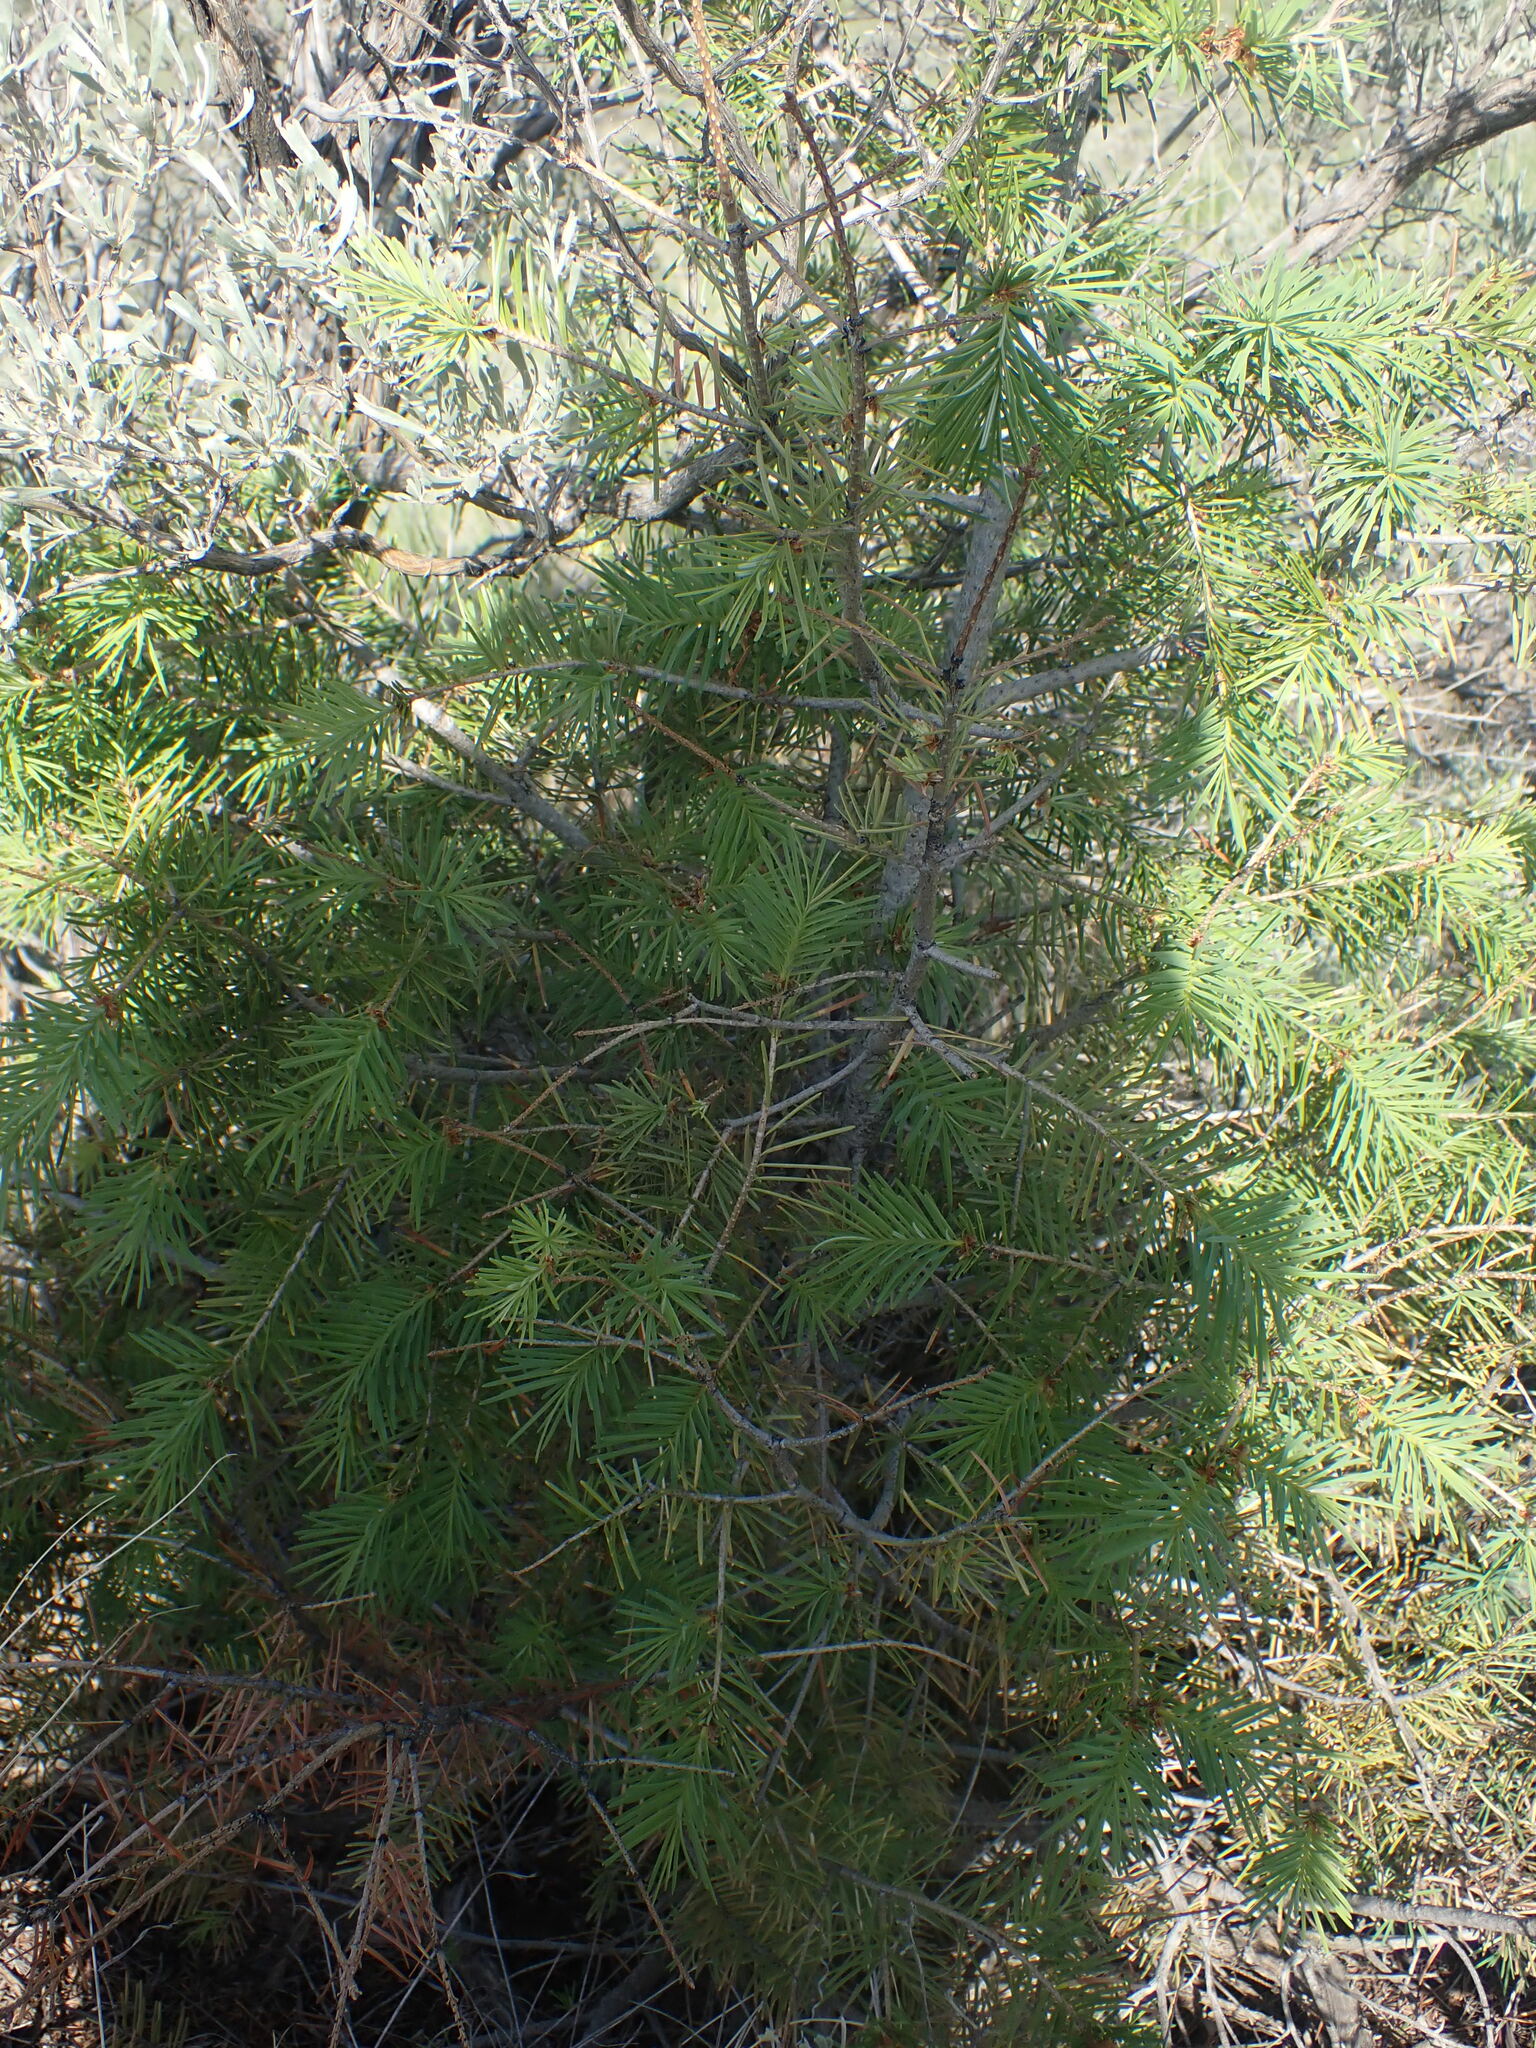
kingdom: Plantae
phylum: Tracheophyta
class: Pinopsida
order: Pinales
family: Pinaceae
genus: Pseudotsuga
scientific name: Pseudotsuga menziesii
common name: Douglas fir
